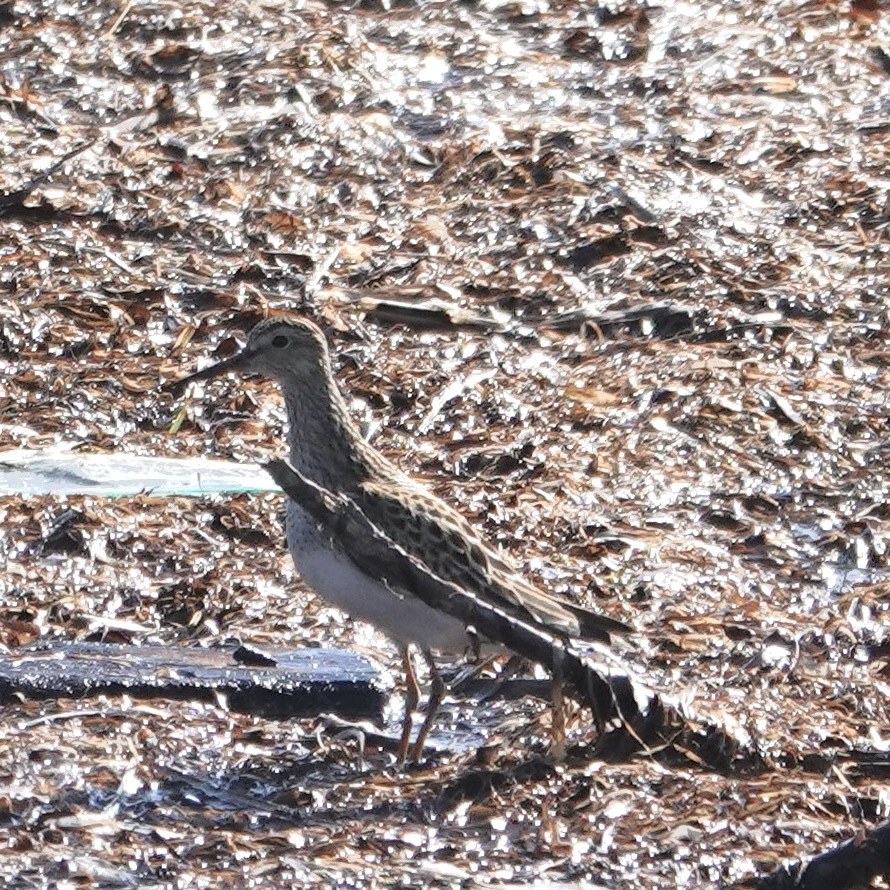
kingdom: Animalia
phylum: Chordata
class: Aves
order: Charadriiformes
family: Scolopacidae
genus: Calidris
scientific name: Calidris melanotos
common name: Pectoral sandpiper
